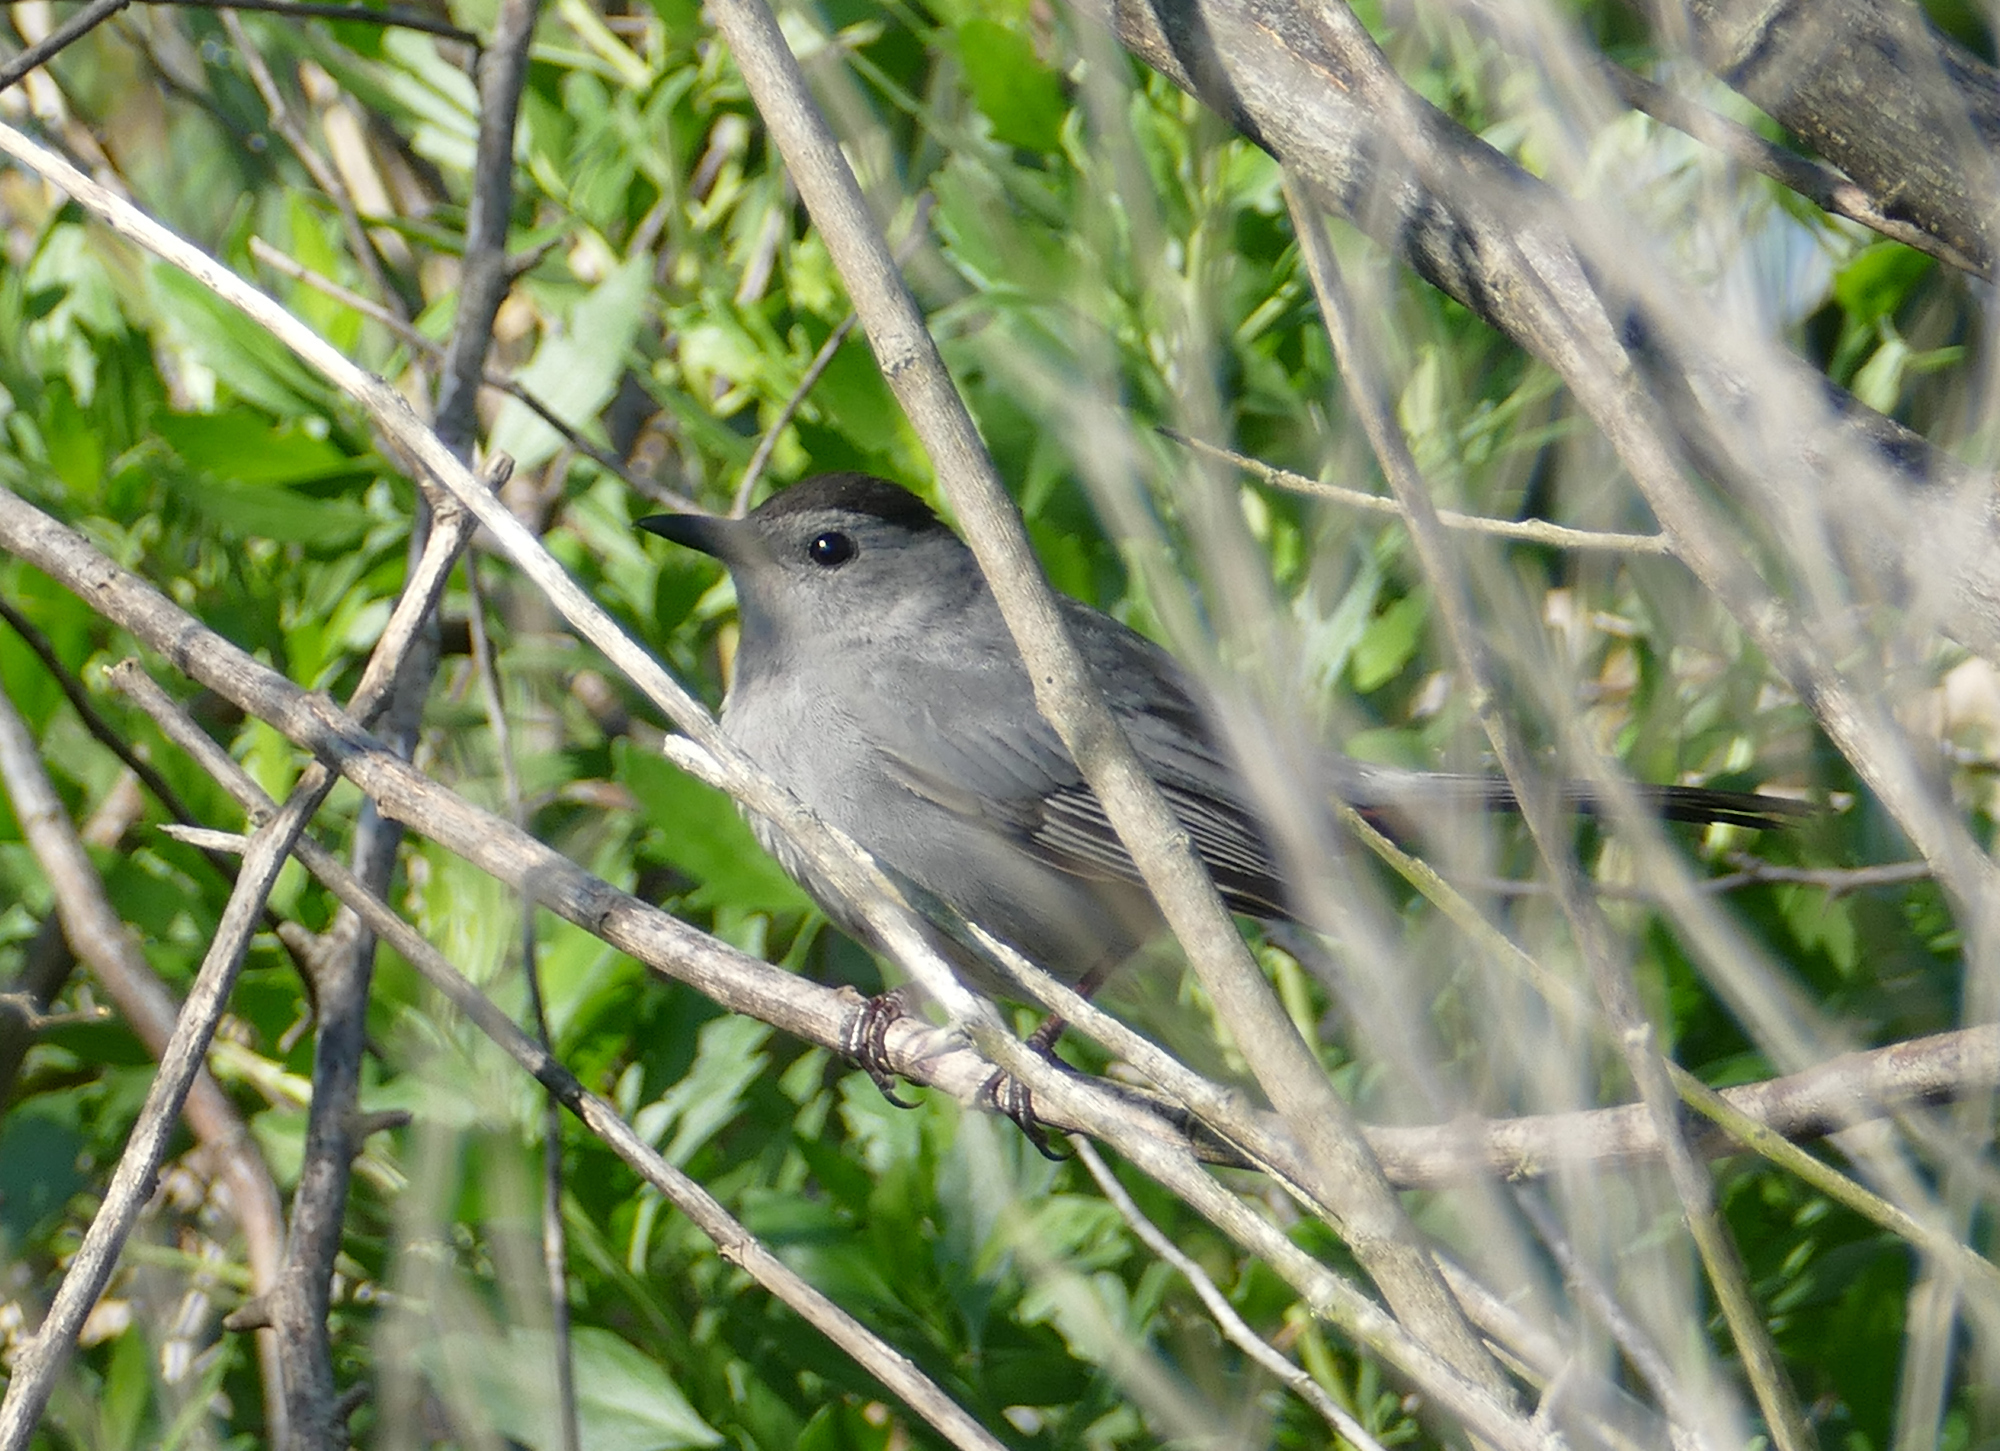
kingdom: Animalia
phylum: Chordata
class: Aves
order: Passeriformes
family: Mimidae
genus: Dumetella
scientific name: Dumetella carolinensis
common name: Gray catbird
